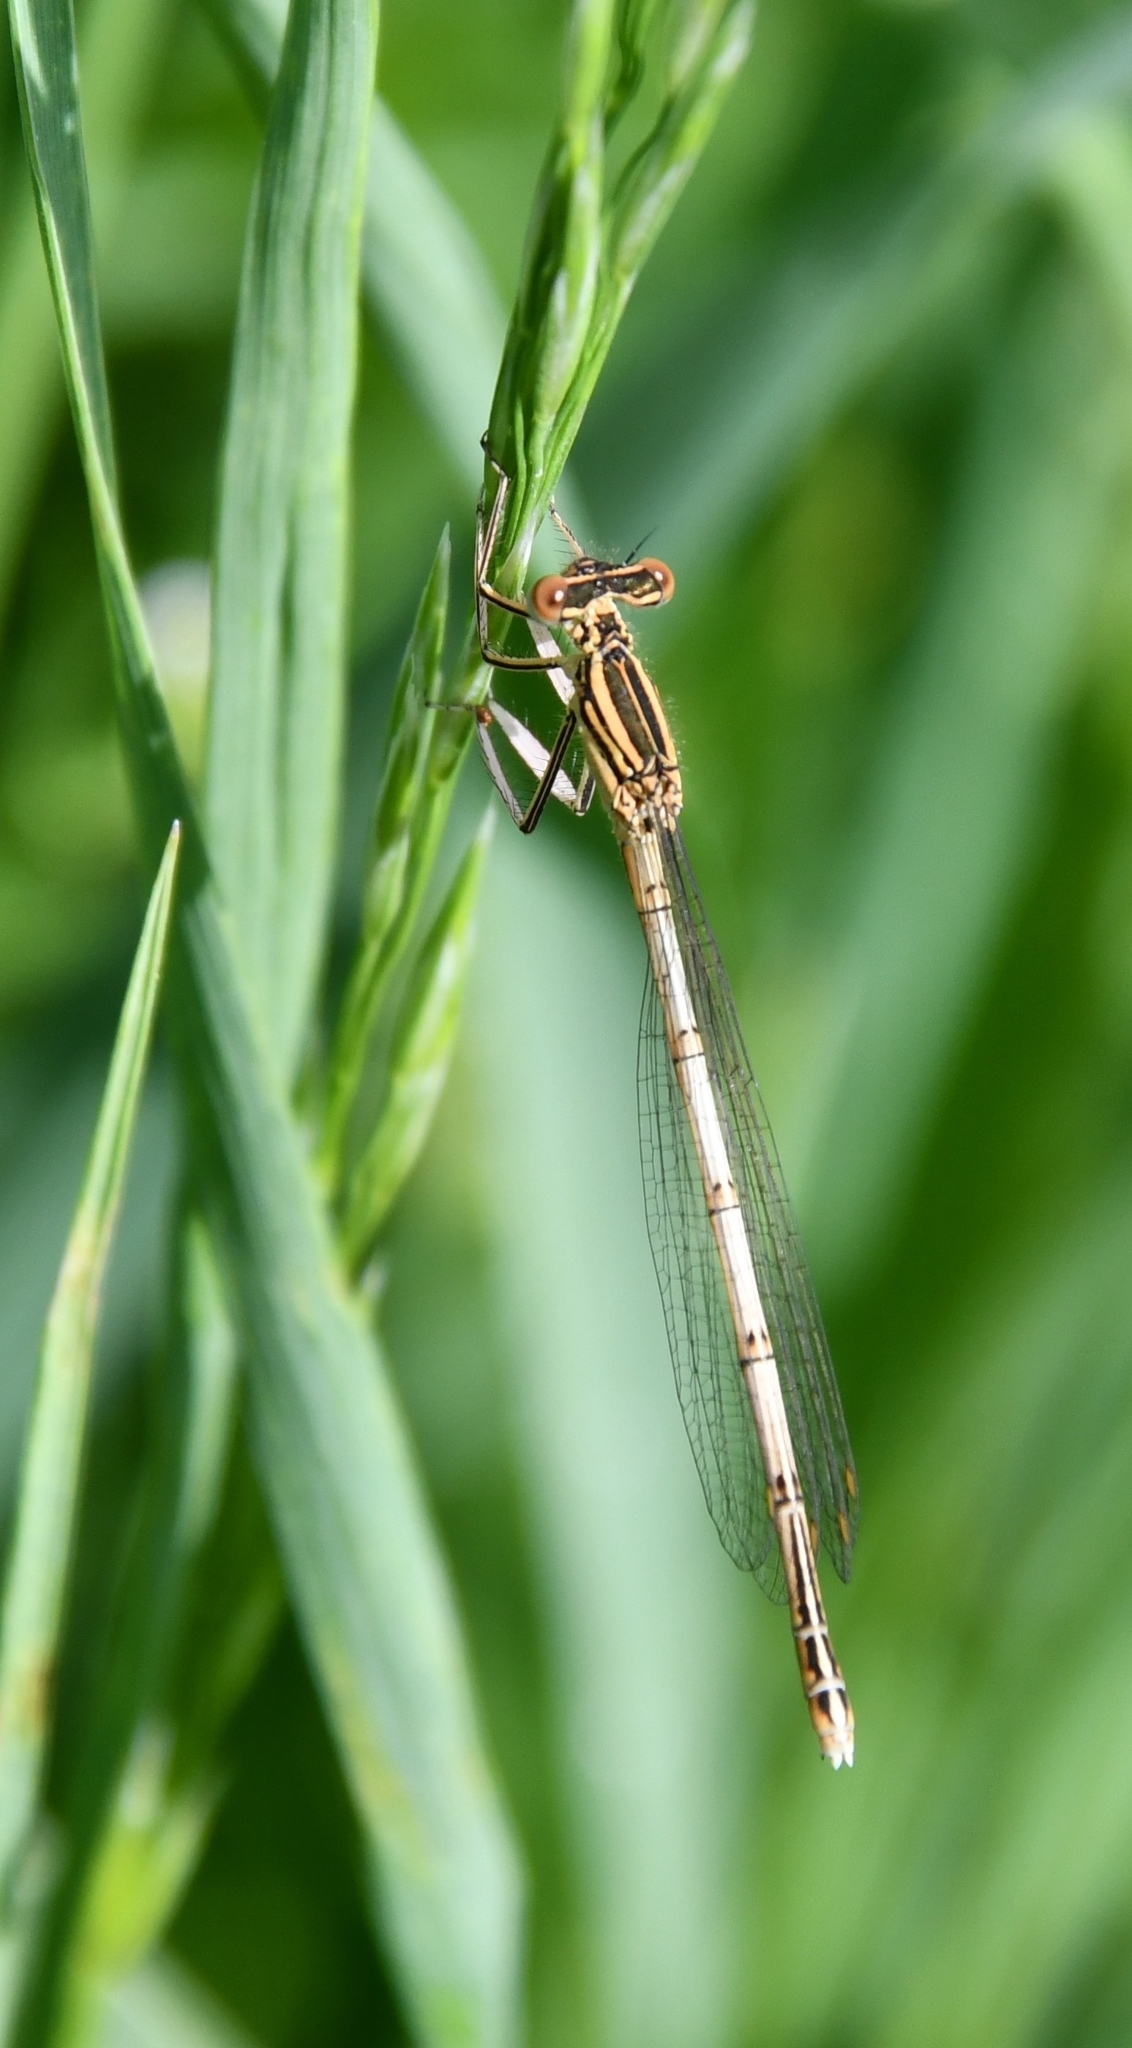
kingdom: Animalia
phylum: Arthropoda
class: Insecta
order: Odonata
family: Platycnemididae
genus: Platycnemis
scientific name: Platycnemis pennipes
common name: White-legged damselfly
